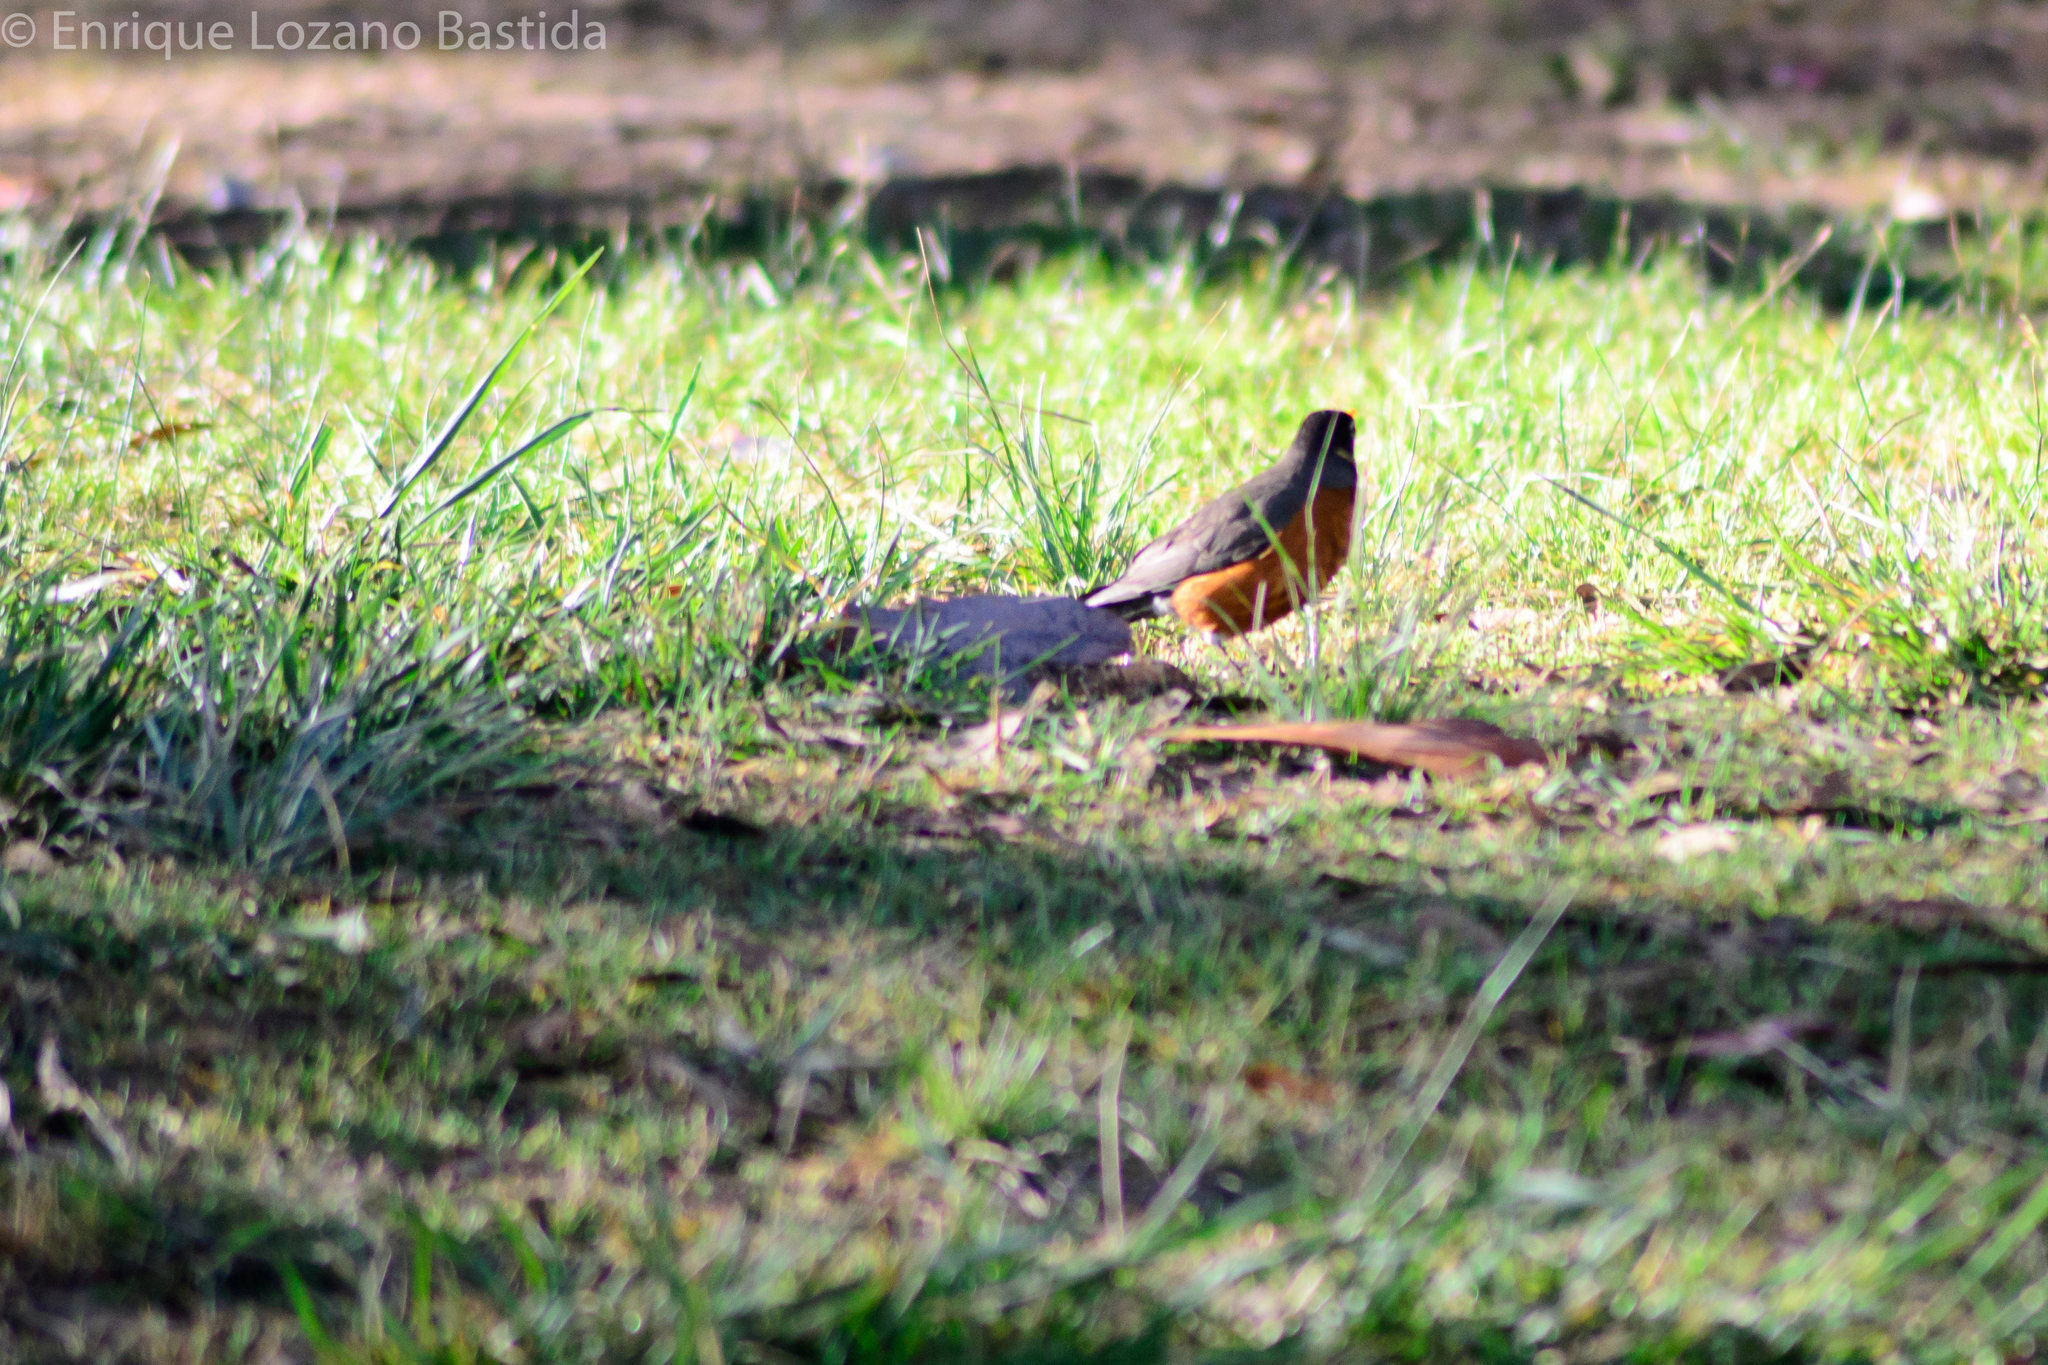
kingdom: Animalia
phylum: Chordata
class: Aves
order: Passeriformes
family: Turdidae
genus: Turdus
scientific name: Turdus migratorius
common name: American robin
